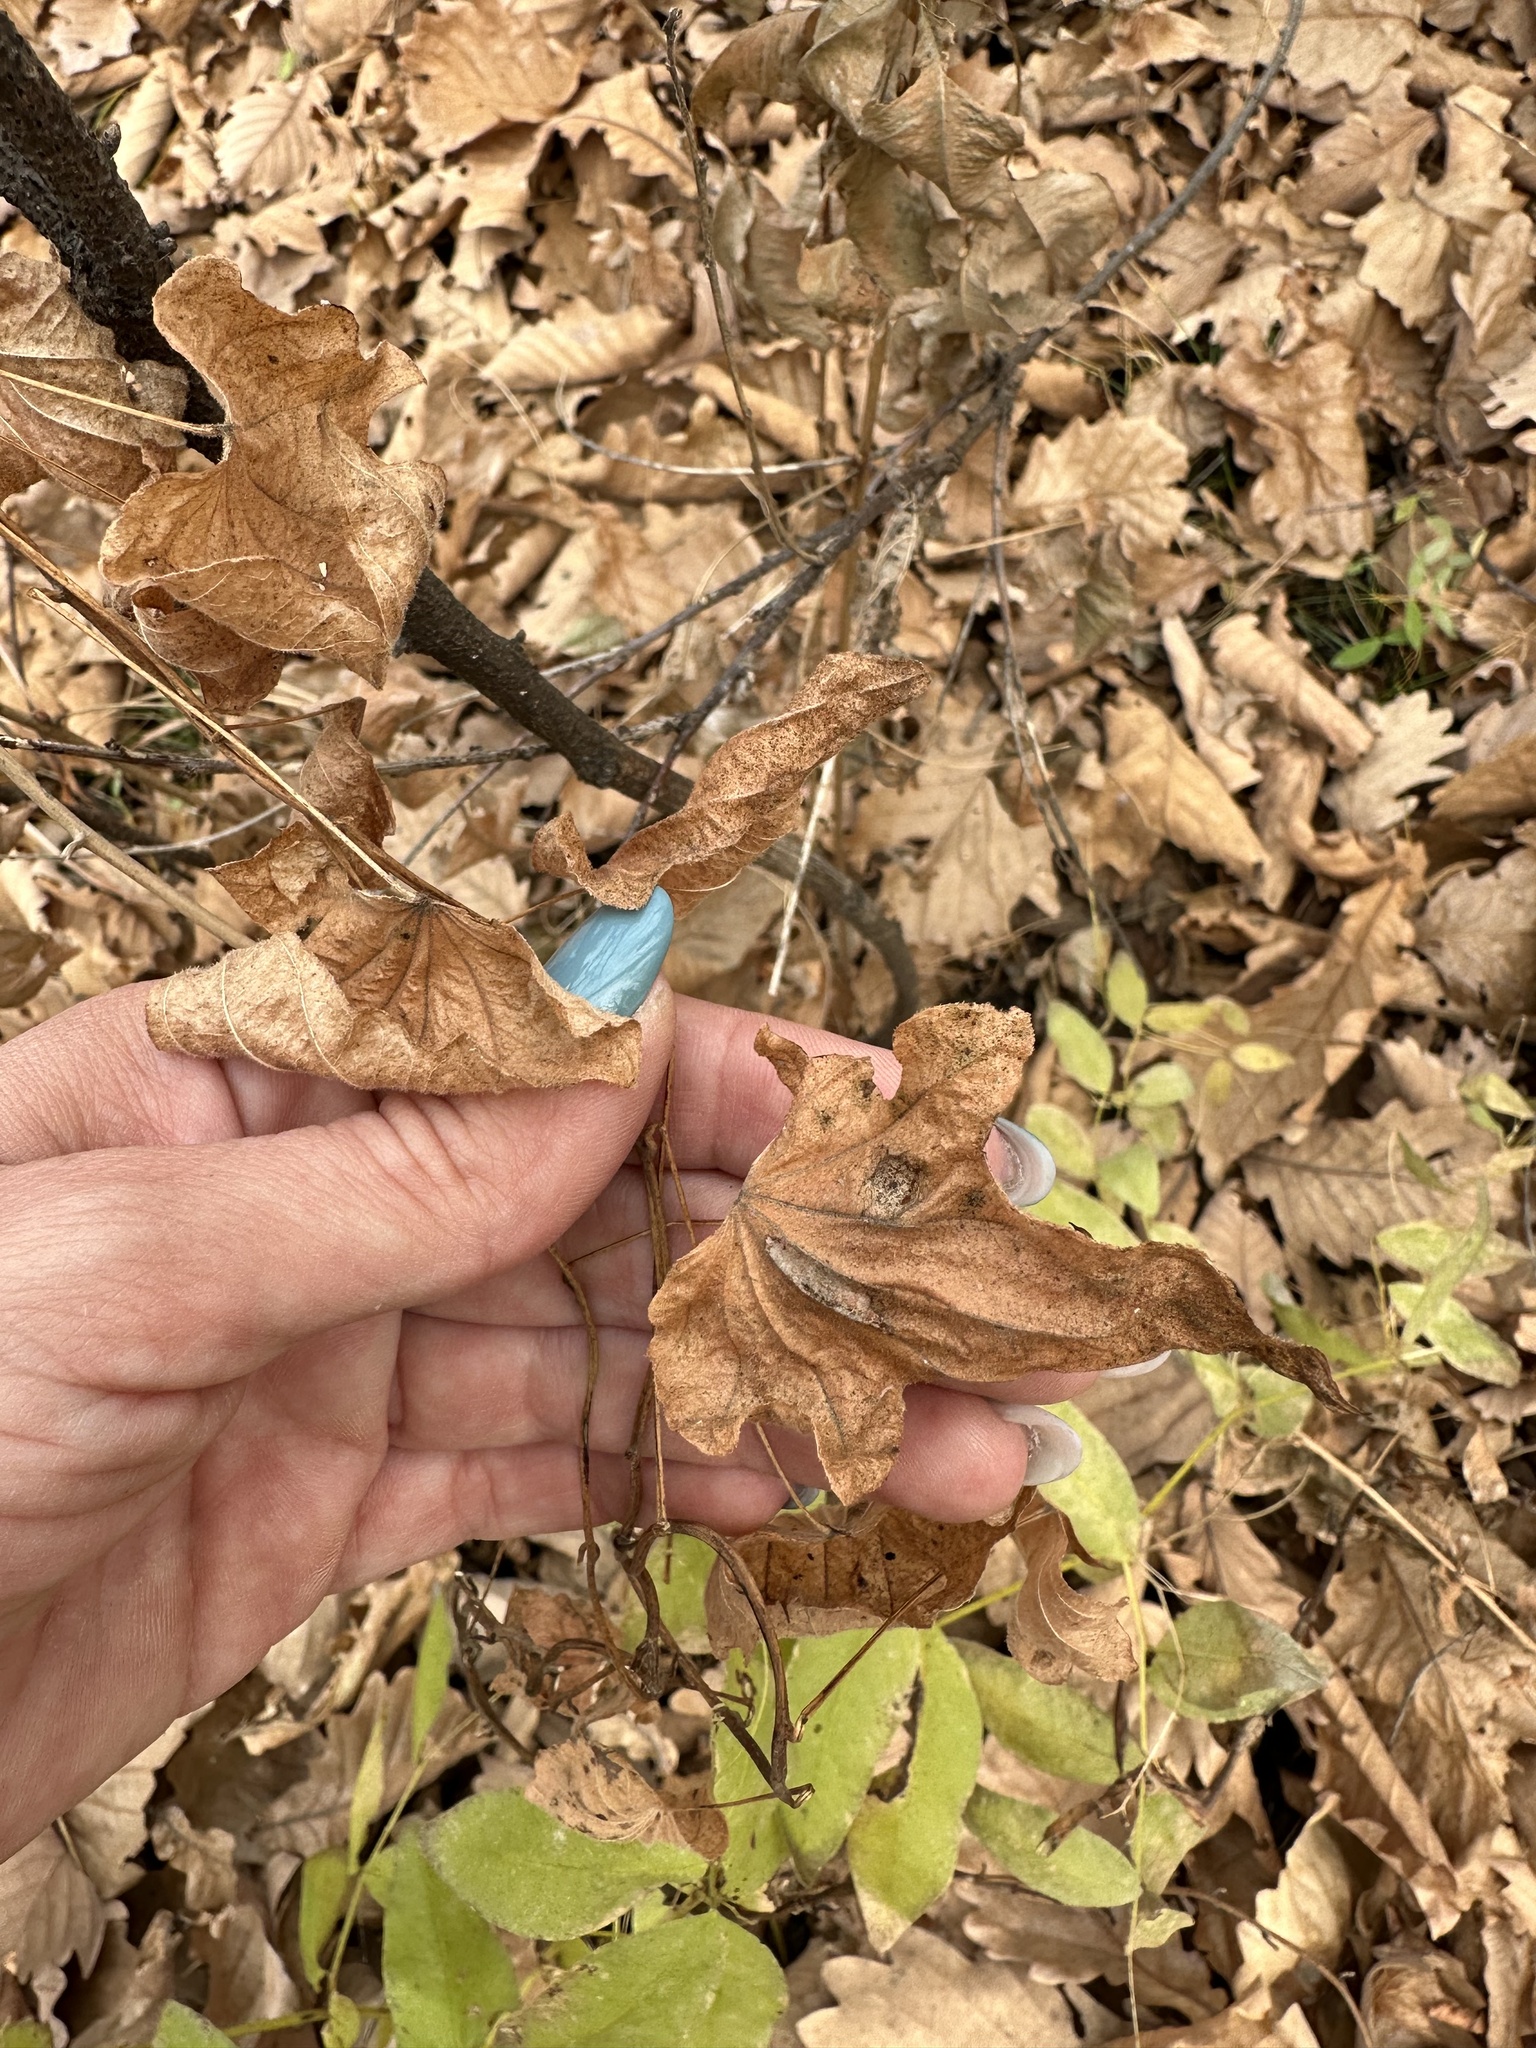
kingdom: Plantae
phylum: Tracheophyta
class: Liliopsida
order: Dioscoreales
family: Dioscoreaceae
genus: Dioscorea
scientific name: Dioscorea nipponica
